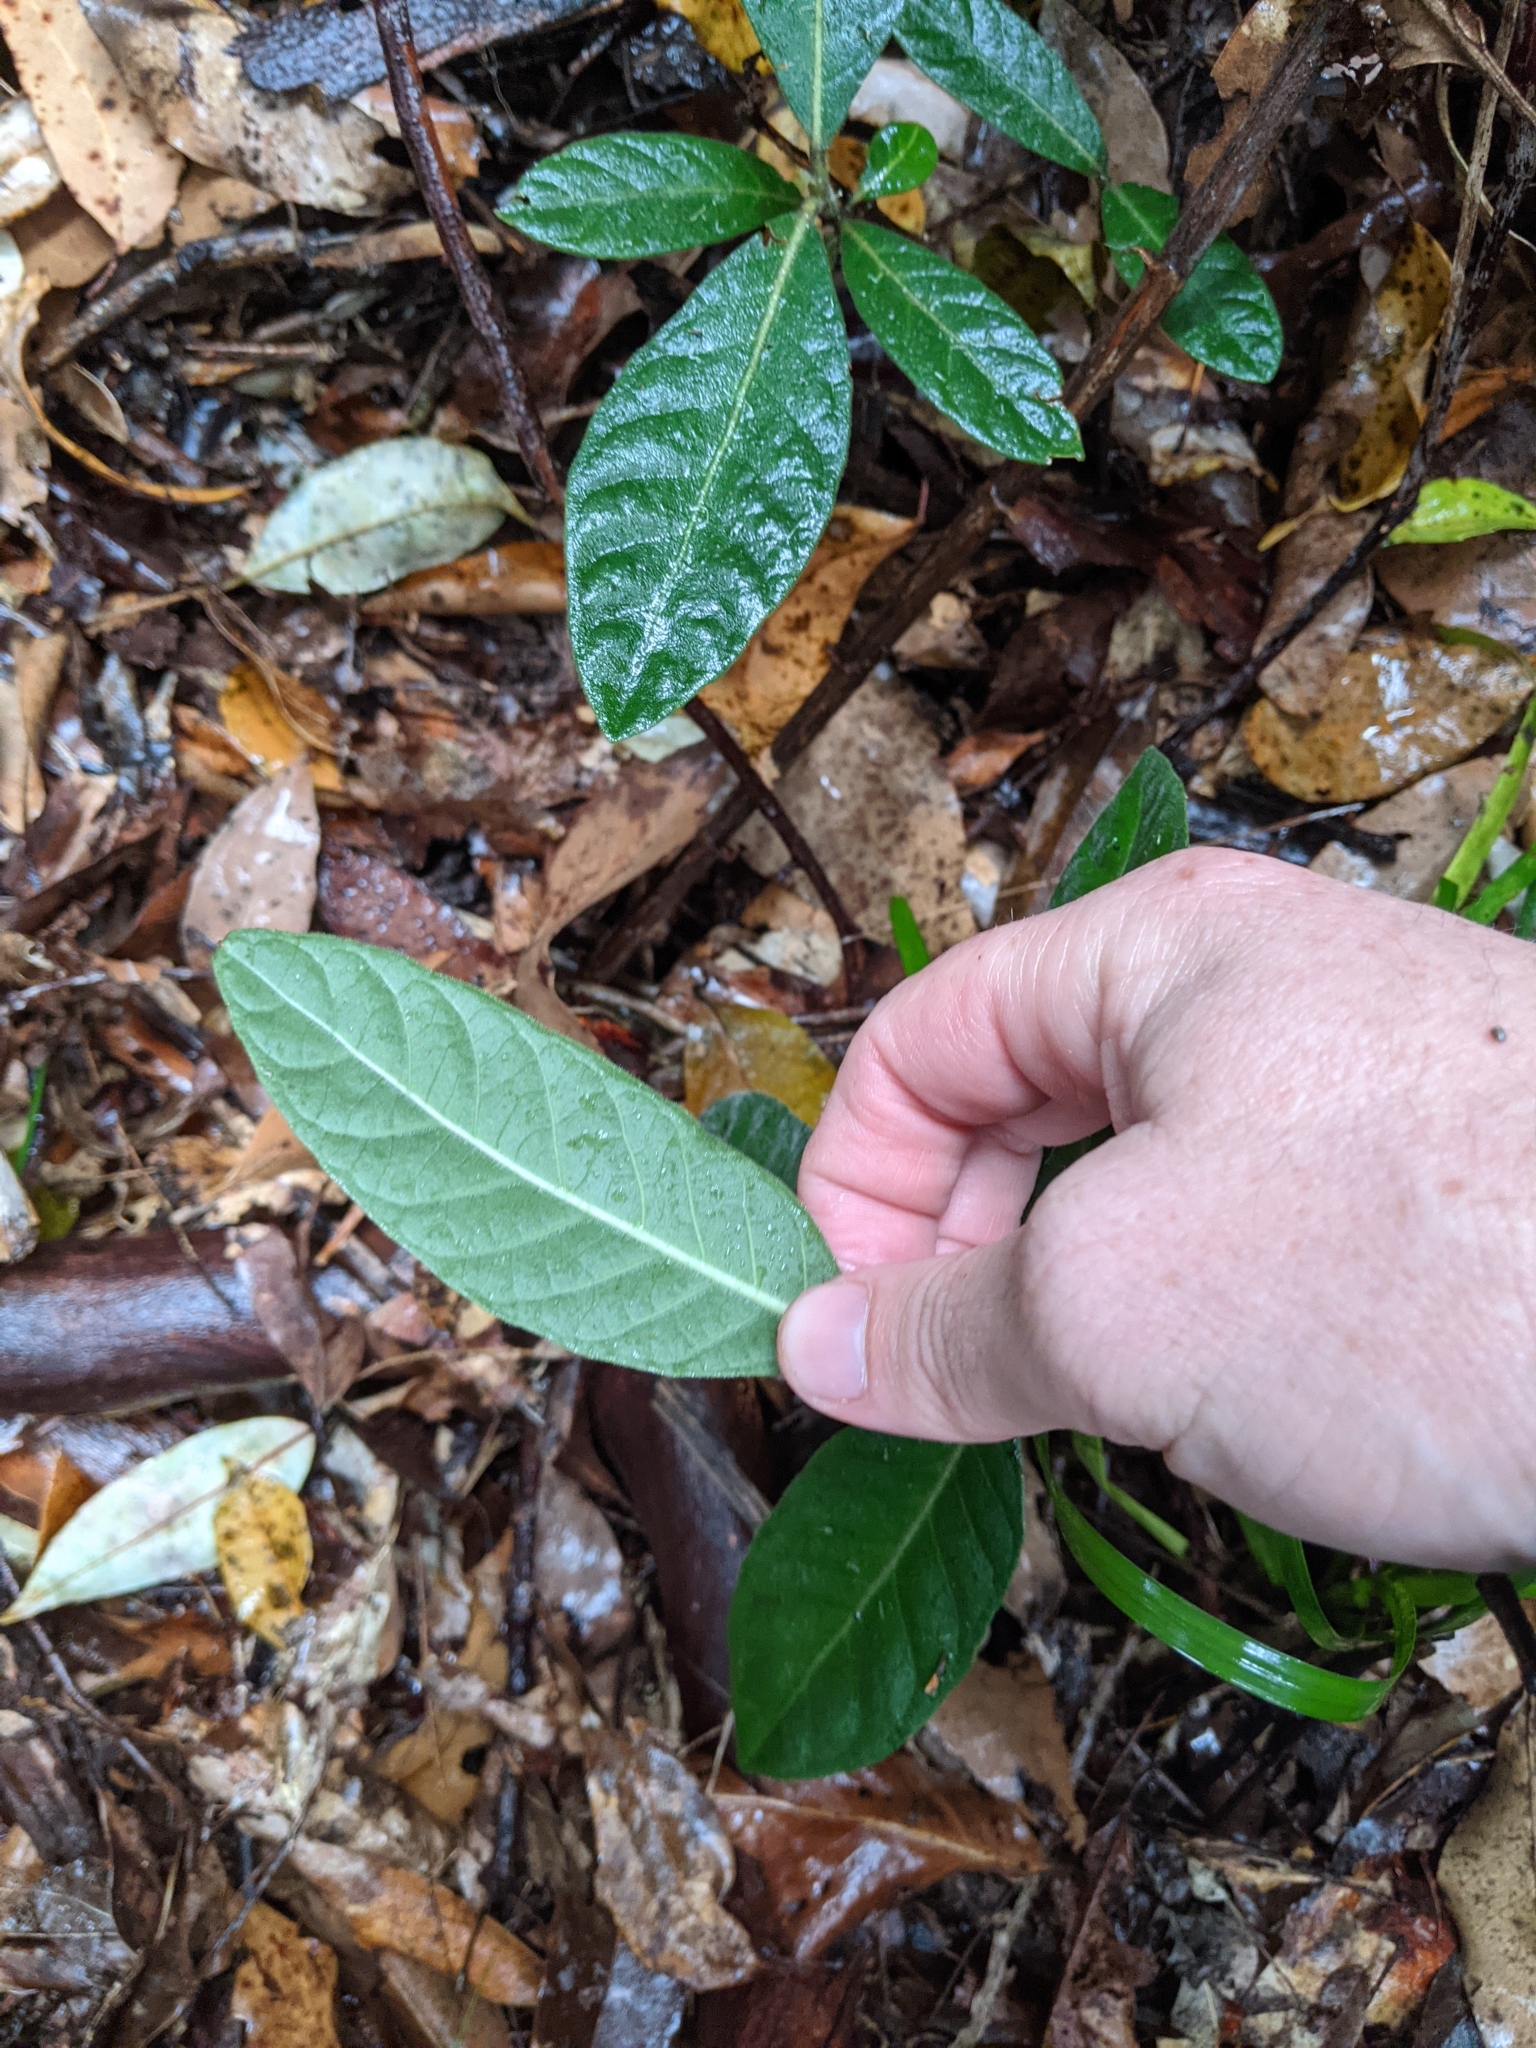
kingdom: Plantae
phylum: Tracheophyta
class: Magnoliopsida
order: Gentianales
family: Rubiaceae
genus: Psychotria
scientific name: Psychotria loniceroides
